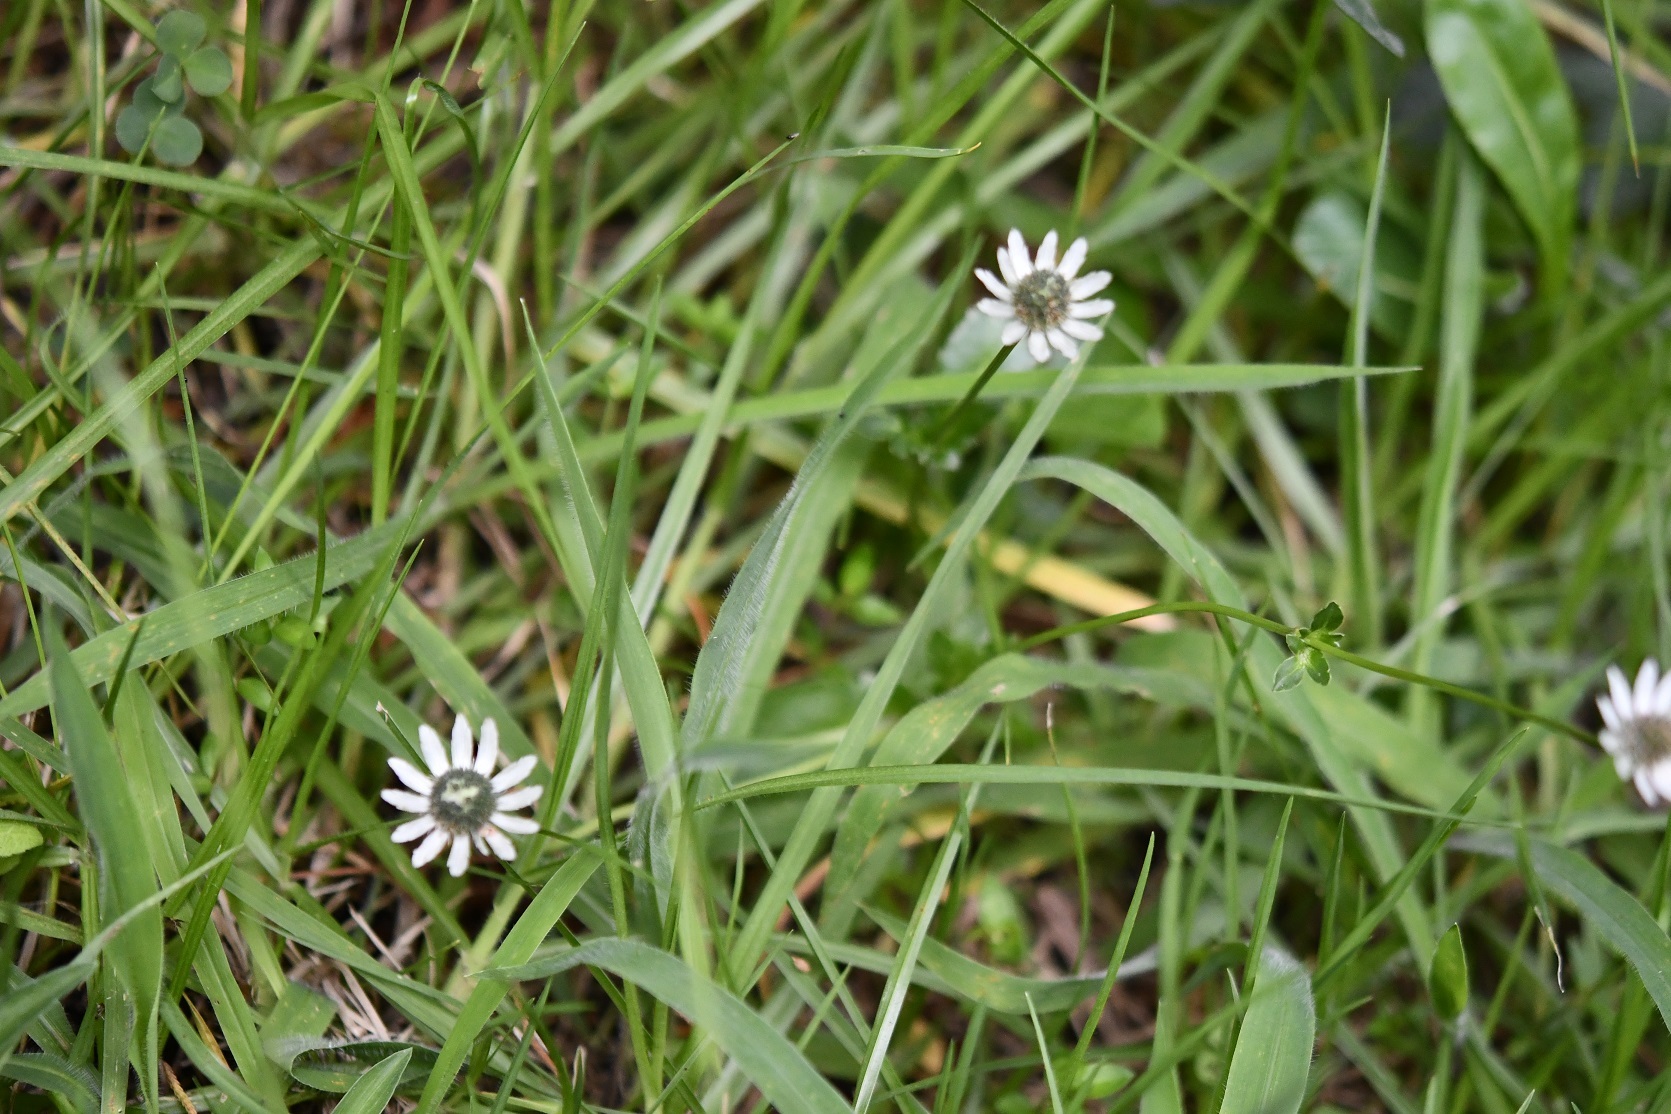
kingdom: Plantae
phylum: Tracheophyta
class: Magnoliopsida
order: Apiales
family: Apiaceae
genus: Eryngium
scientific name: Eryngium scaposum
